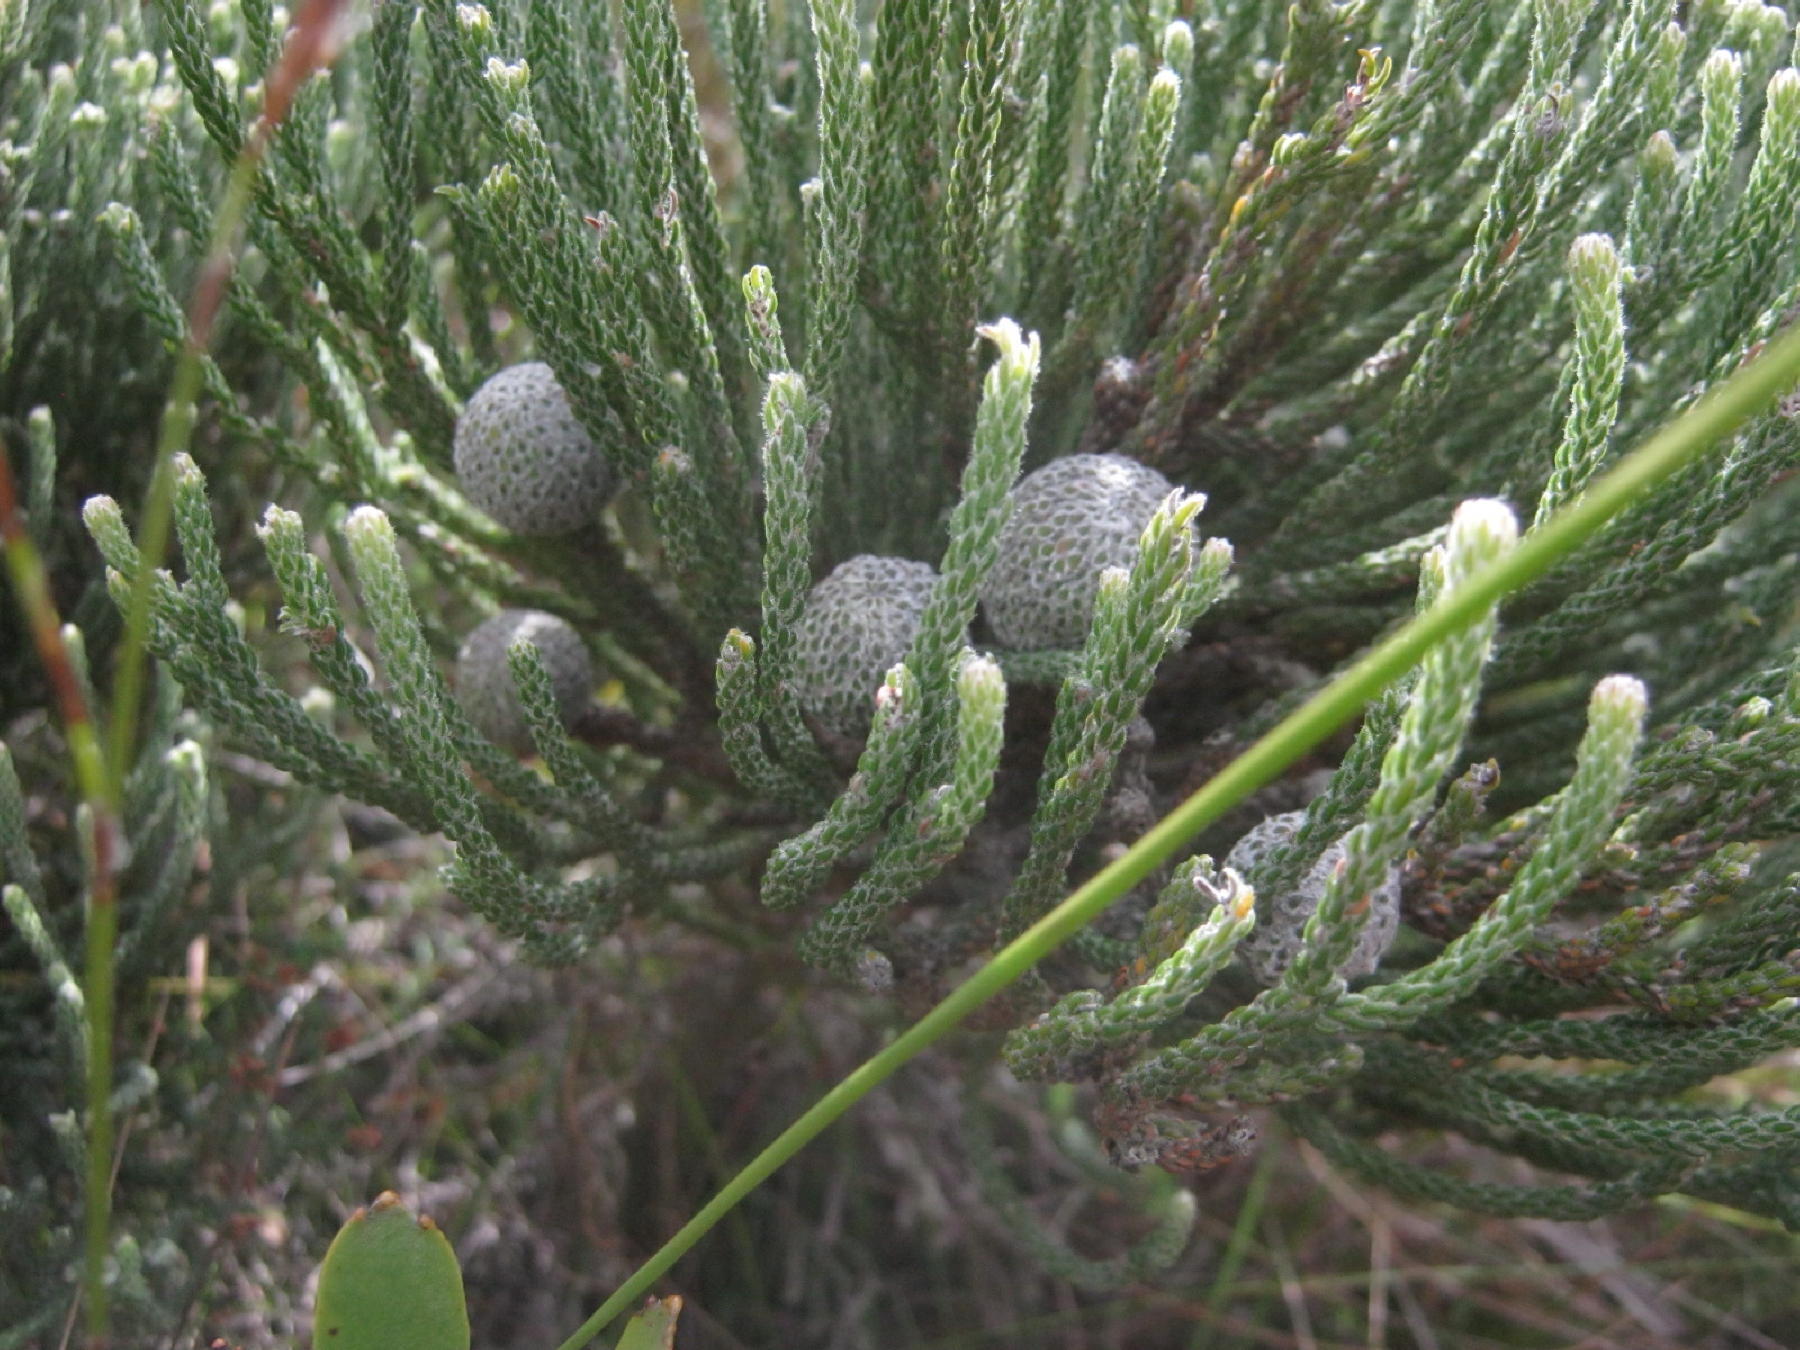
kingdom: Plantae
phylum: Tracheophyta
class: Magnoliopsida
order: Bruniales
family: Bruniaceae
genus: Brunia
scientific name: Brunia noduliflora
